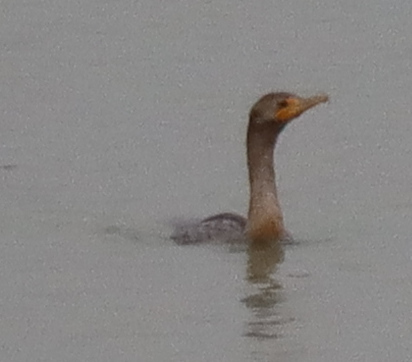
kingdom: Animalia
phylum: Chordata
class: Aves
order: Suliformes
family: Phalacrocoracidae
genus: Phalacrocorax
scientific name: Phalacrocorax auritus
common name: Double-crested cormorant
